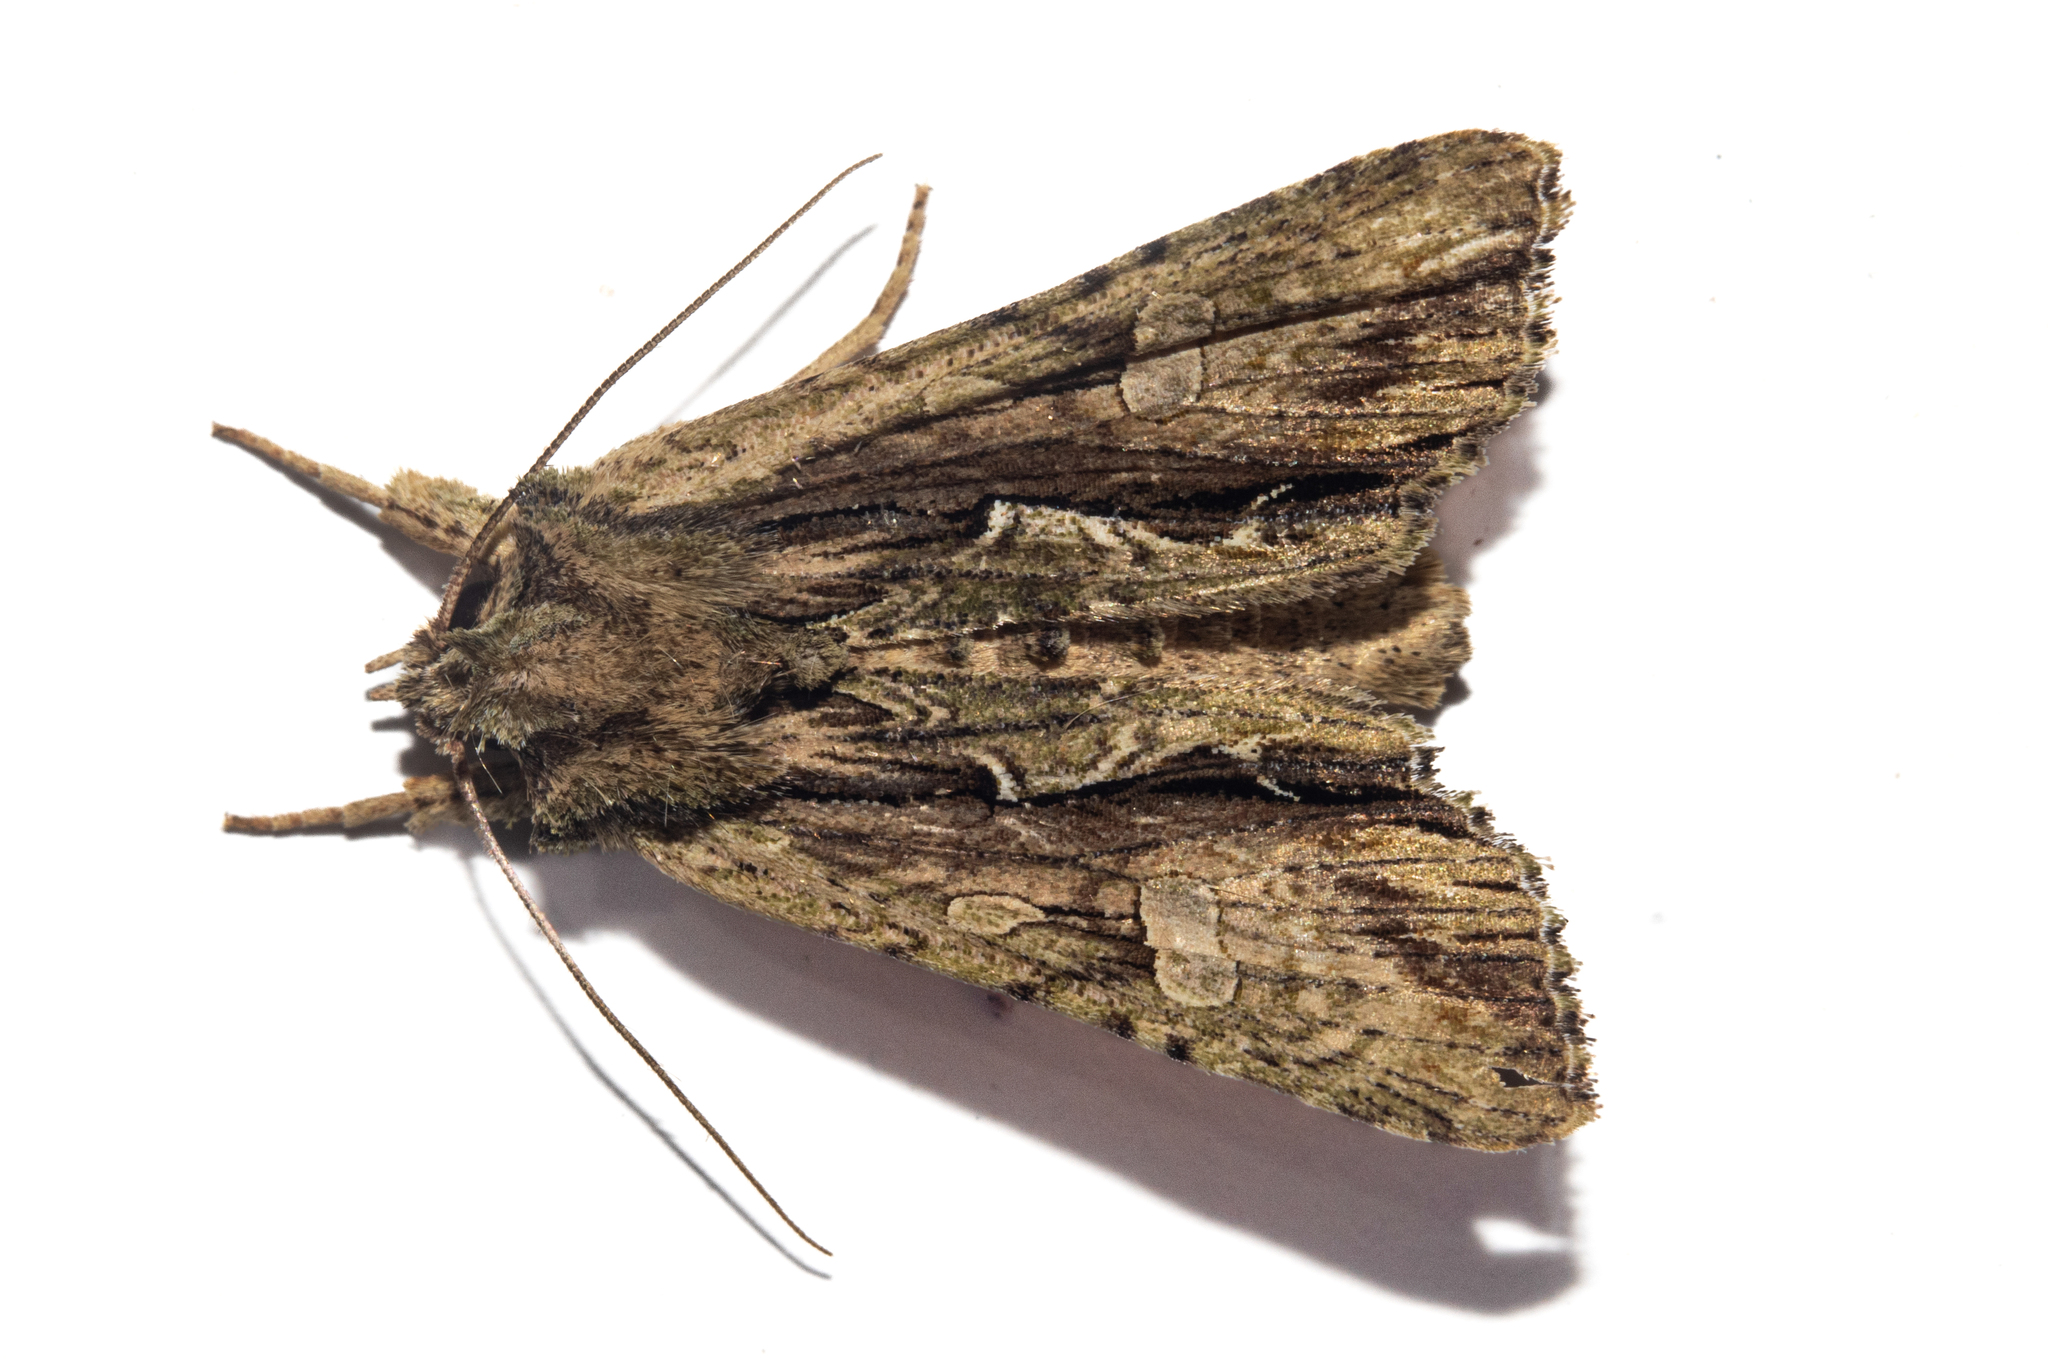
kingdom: Animalia
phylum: Arthropoda
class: Insecta
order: Lepidoptera
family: Noctuidae
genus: Meterana
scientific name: Meterana decorata
